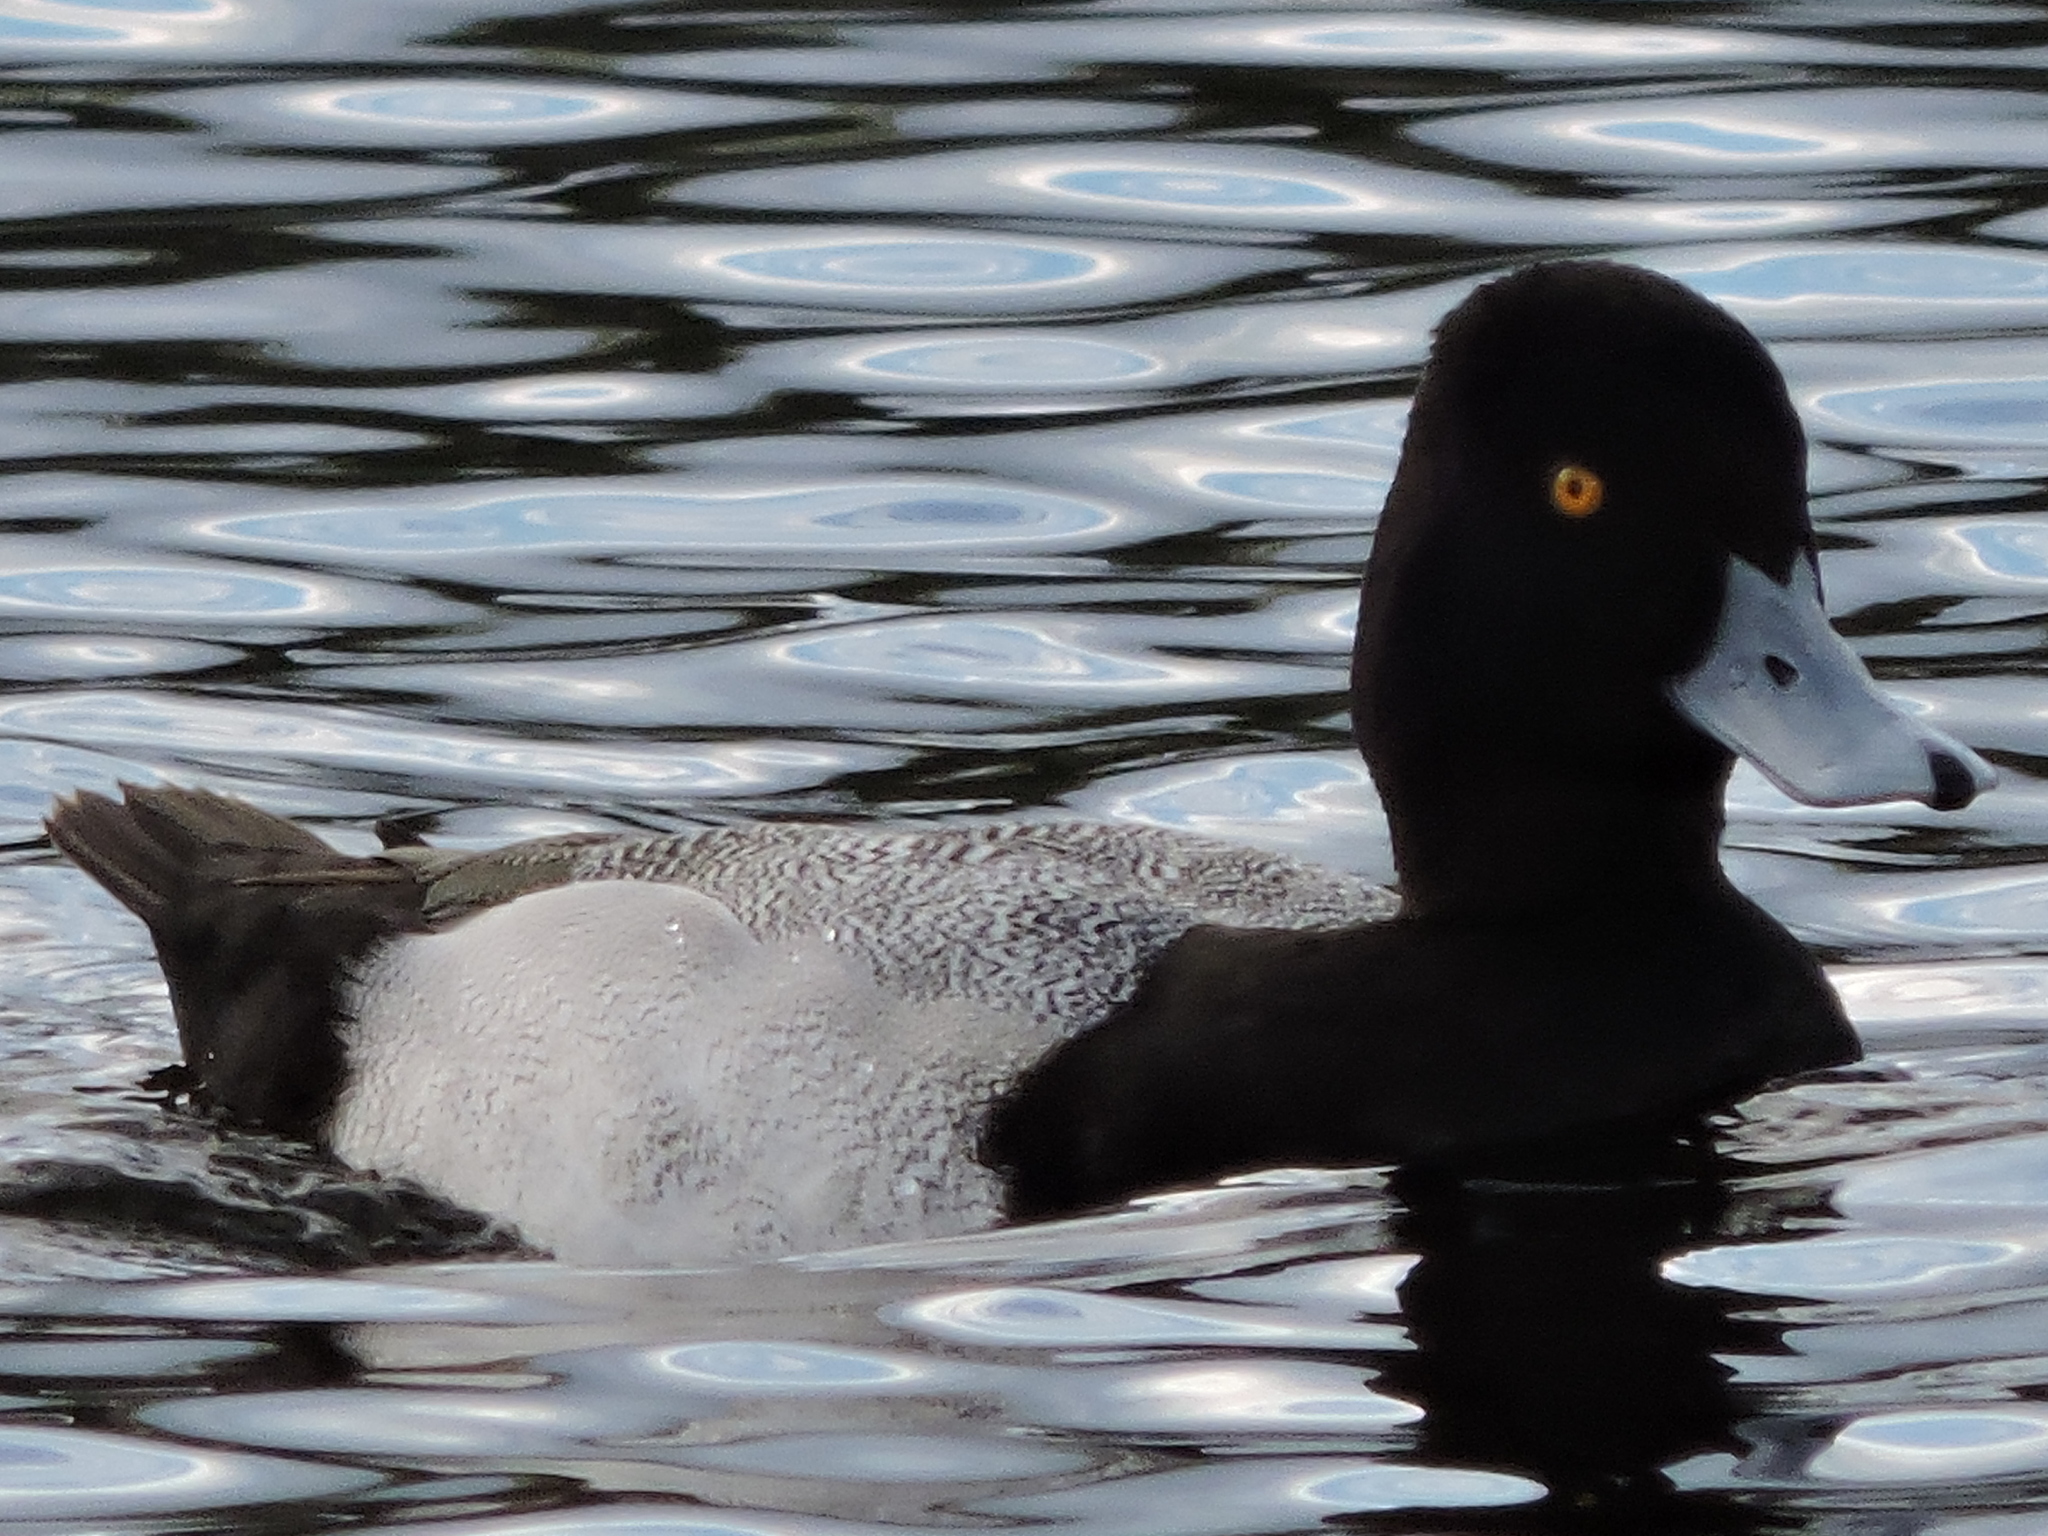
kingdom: Animalia
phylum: Chordata
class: Aves
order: Anseriformes
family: Anatidae
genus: Aythya
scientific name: Aythya affinis
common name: Lesser scaup
